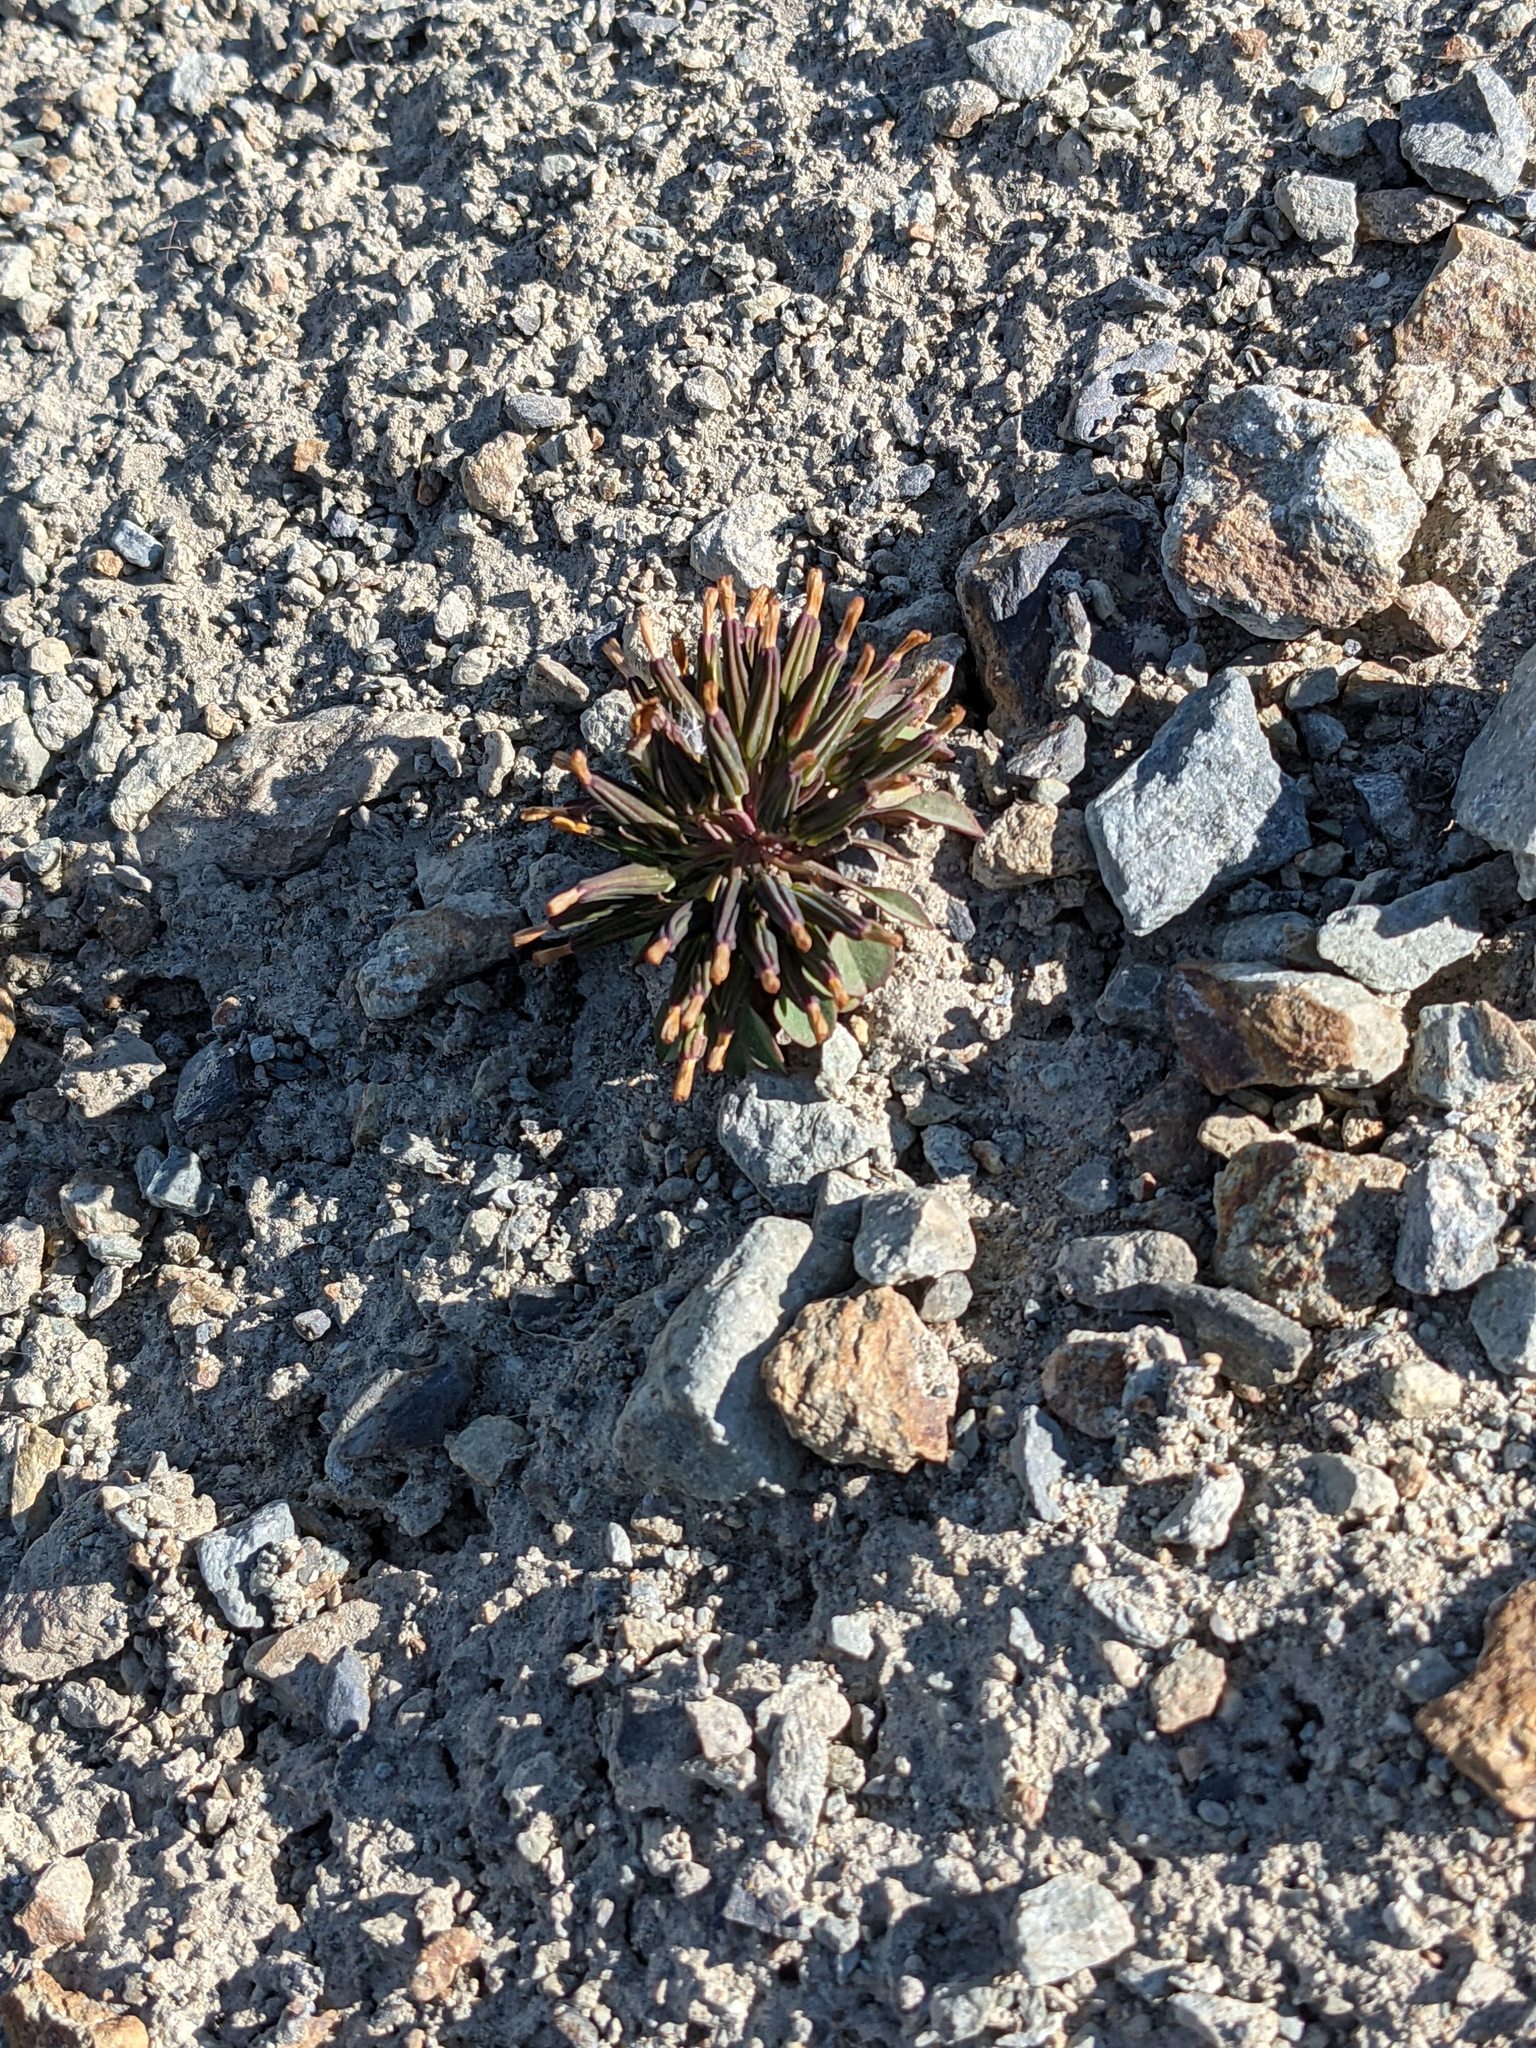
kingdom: Plantae
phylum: Tracheophyta
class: Magnoliopsida
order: Asterales
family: Asteraceae
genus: Askellia
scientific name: Askellia pygmaea
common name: Dwarf alpine hawksbeard
